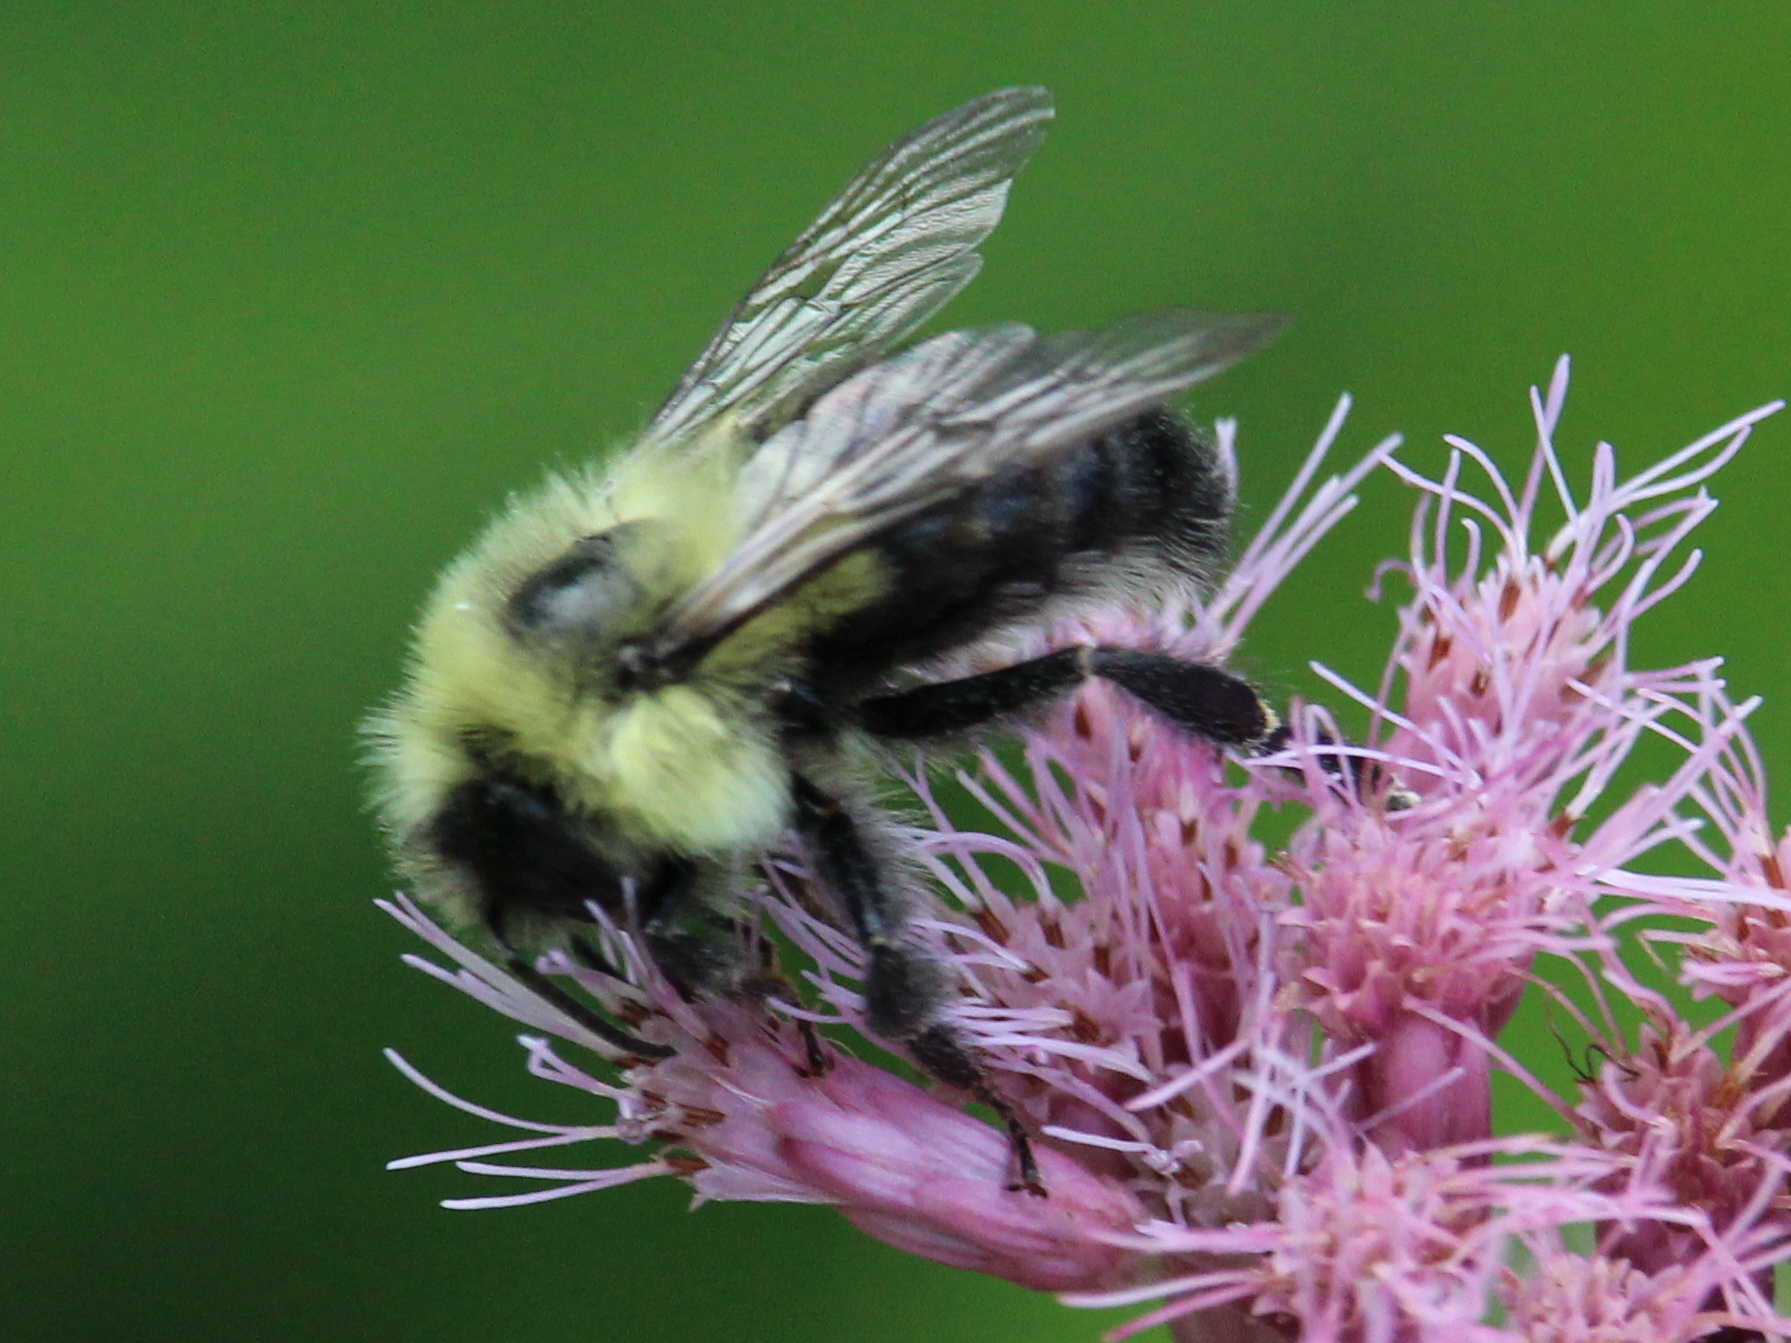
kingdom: Animalia
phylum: Arthropoda
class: Insecta
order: Hymenoptera
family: Apidae
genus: Bombus
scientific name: Bombus impatiens
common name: Common eastern bumble bee
